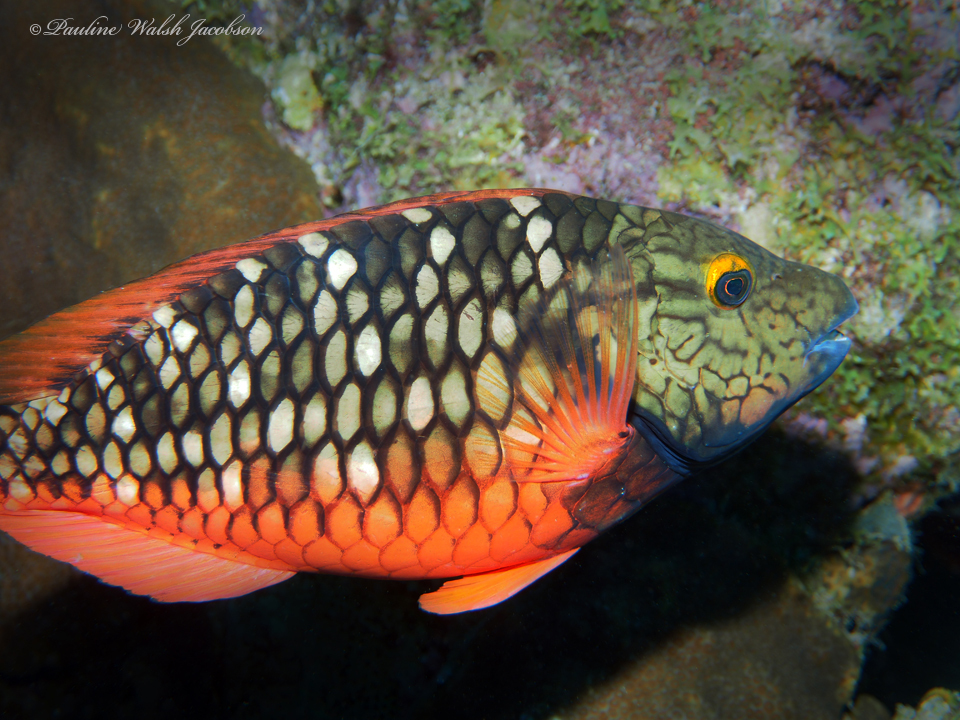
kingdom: Animalia
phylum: Chordata
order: Perciformes
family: Scaridae
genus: Sparisoma
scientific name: Sparisoma viride
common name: Stoplight parrotfish
